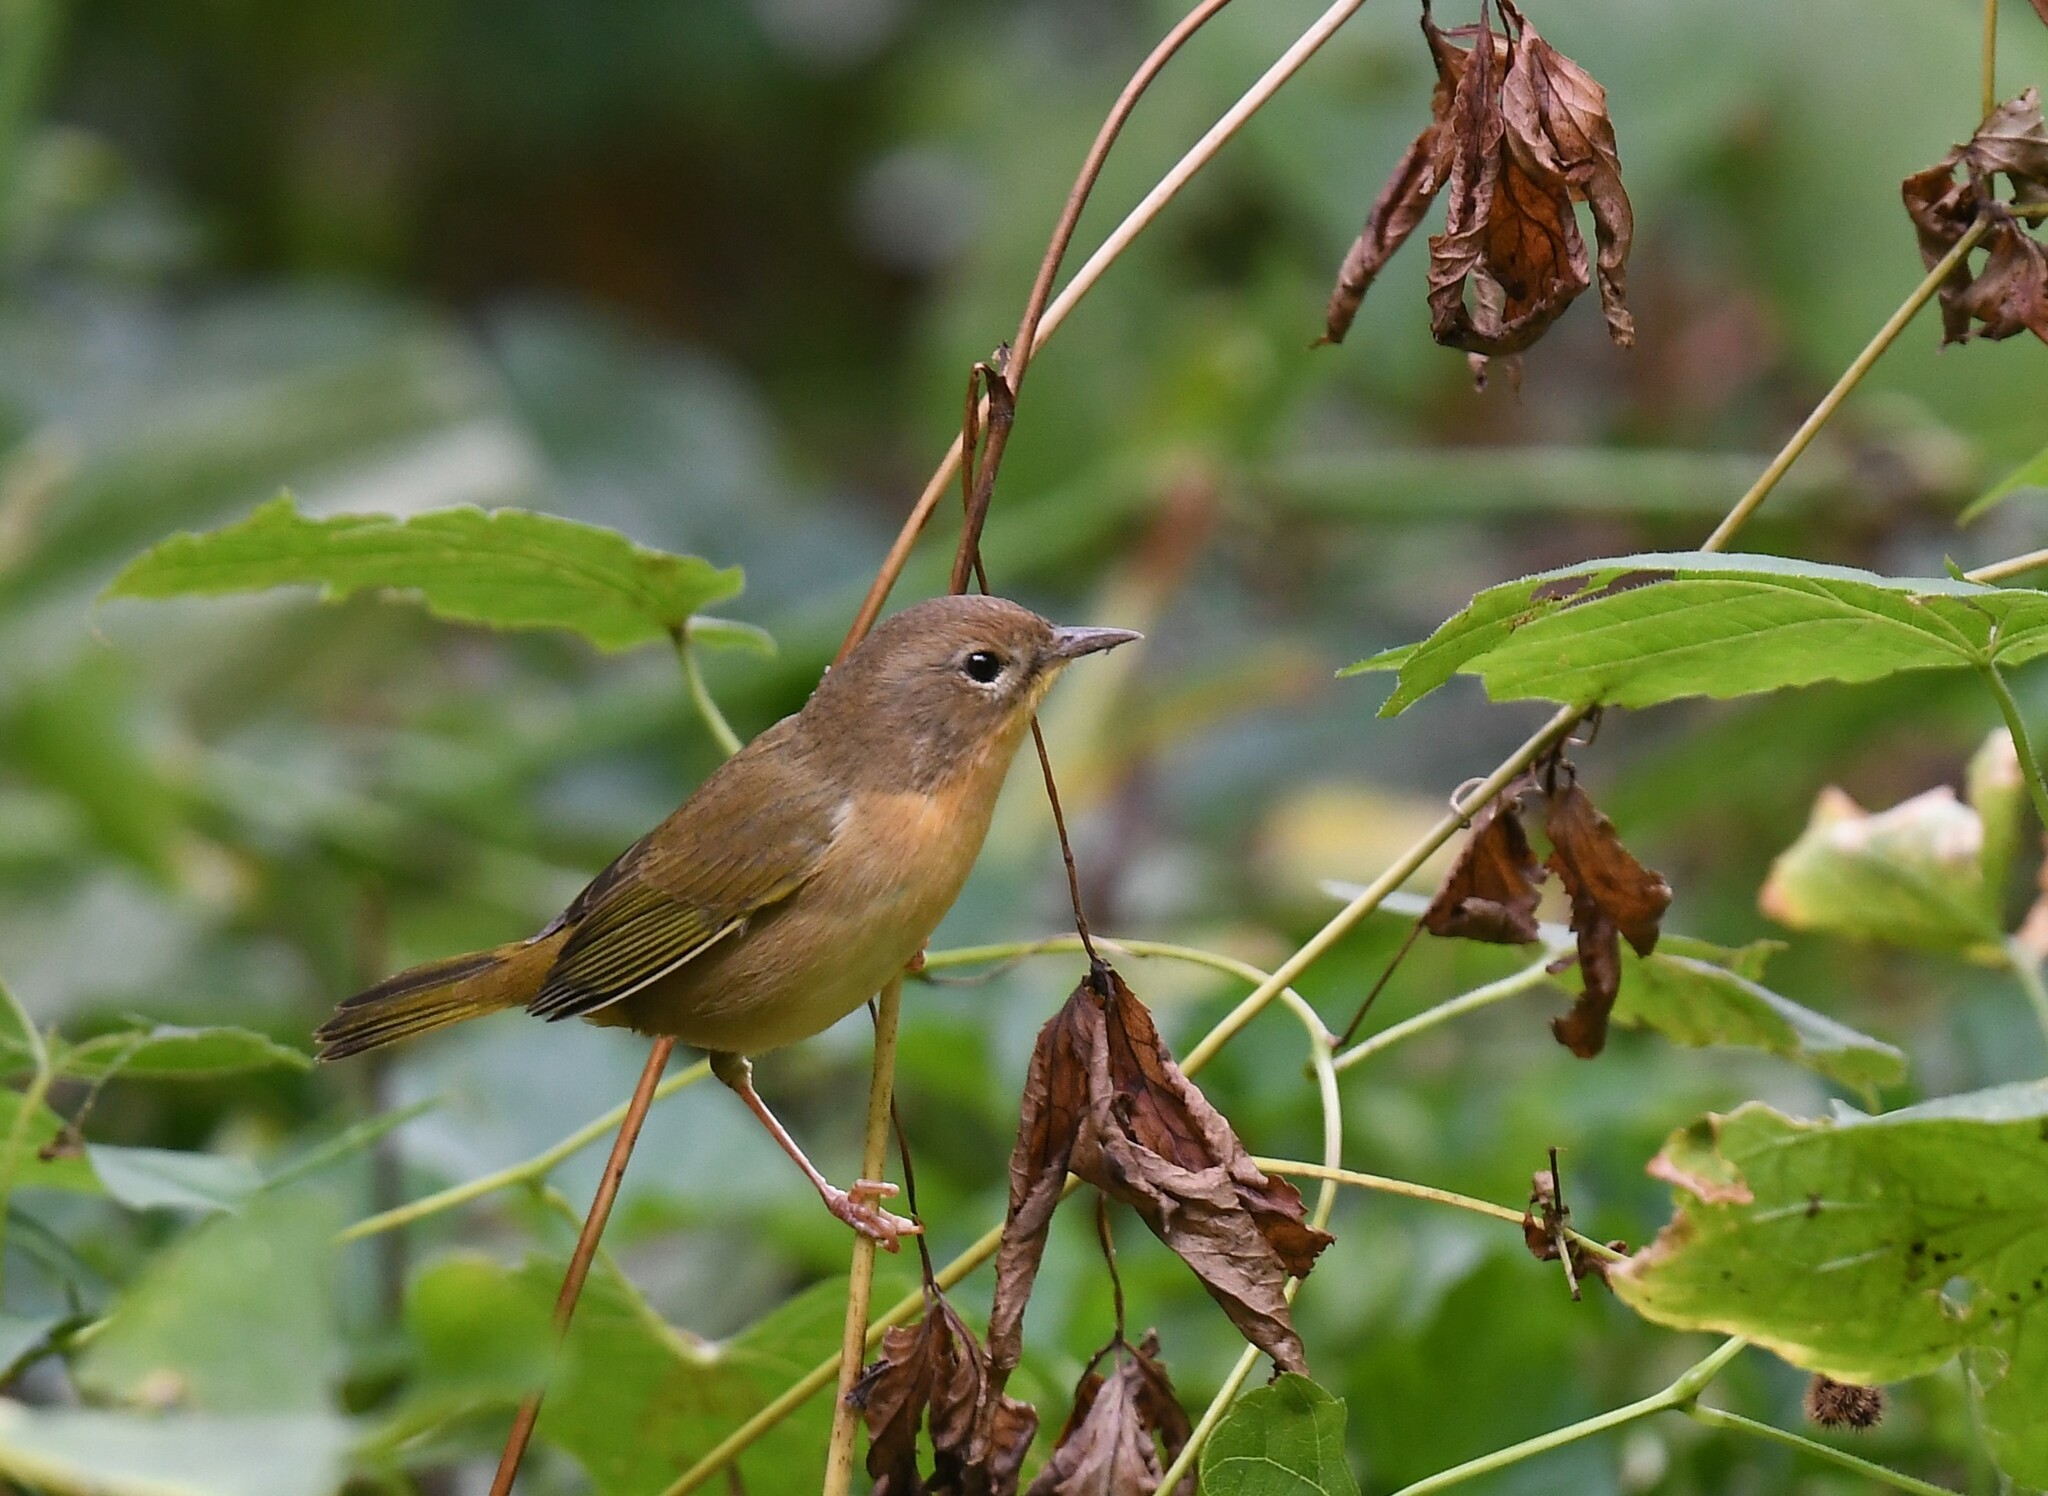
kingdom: Animalia
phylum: Chordata
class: Aves
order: Passeriformes
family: Parulidae
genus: Geothlypis
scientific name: Geothlypis trichas
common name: Common yellowthroat
